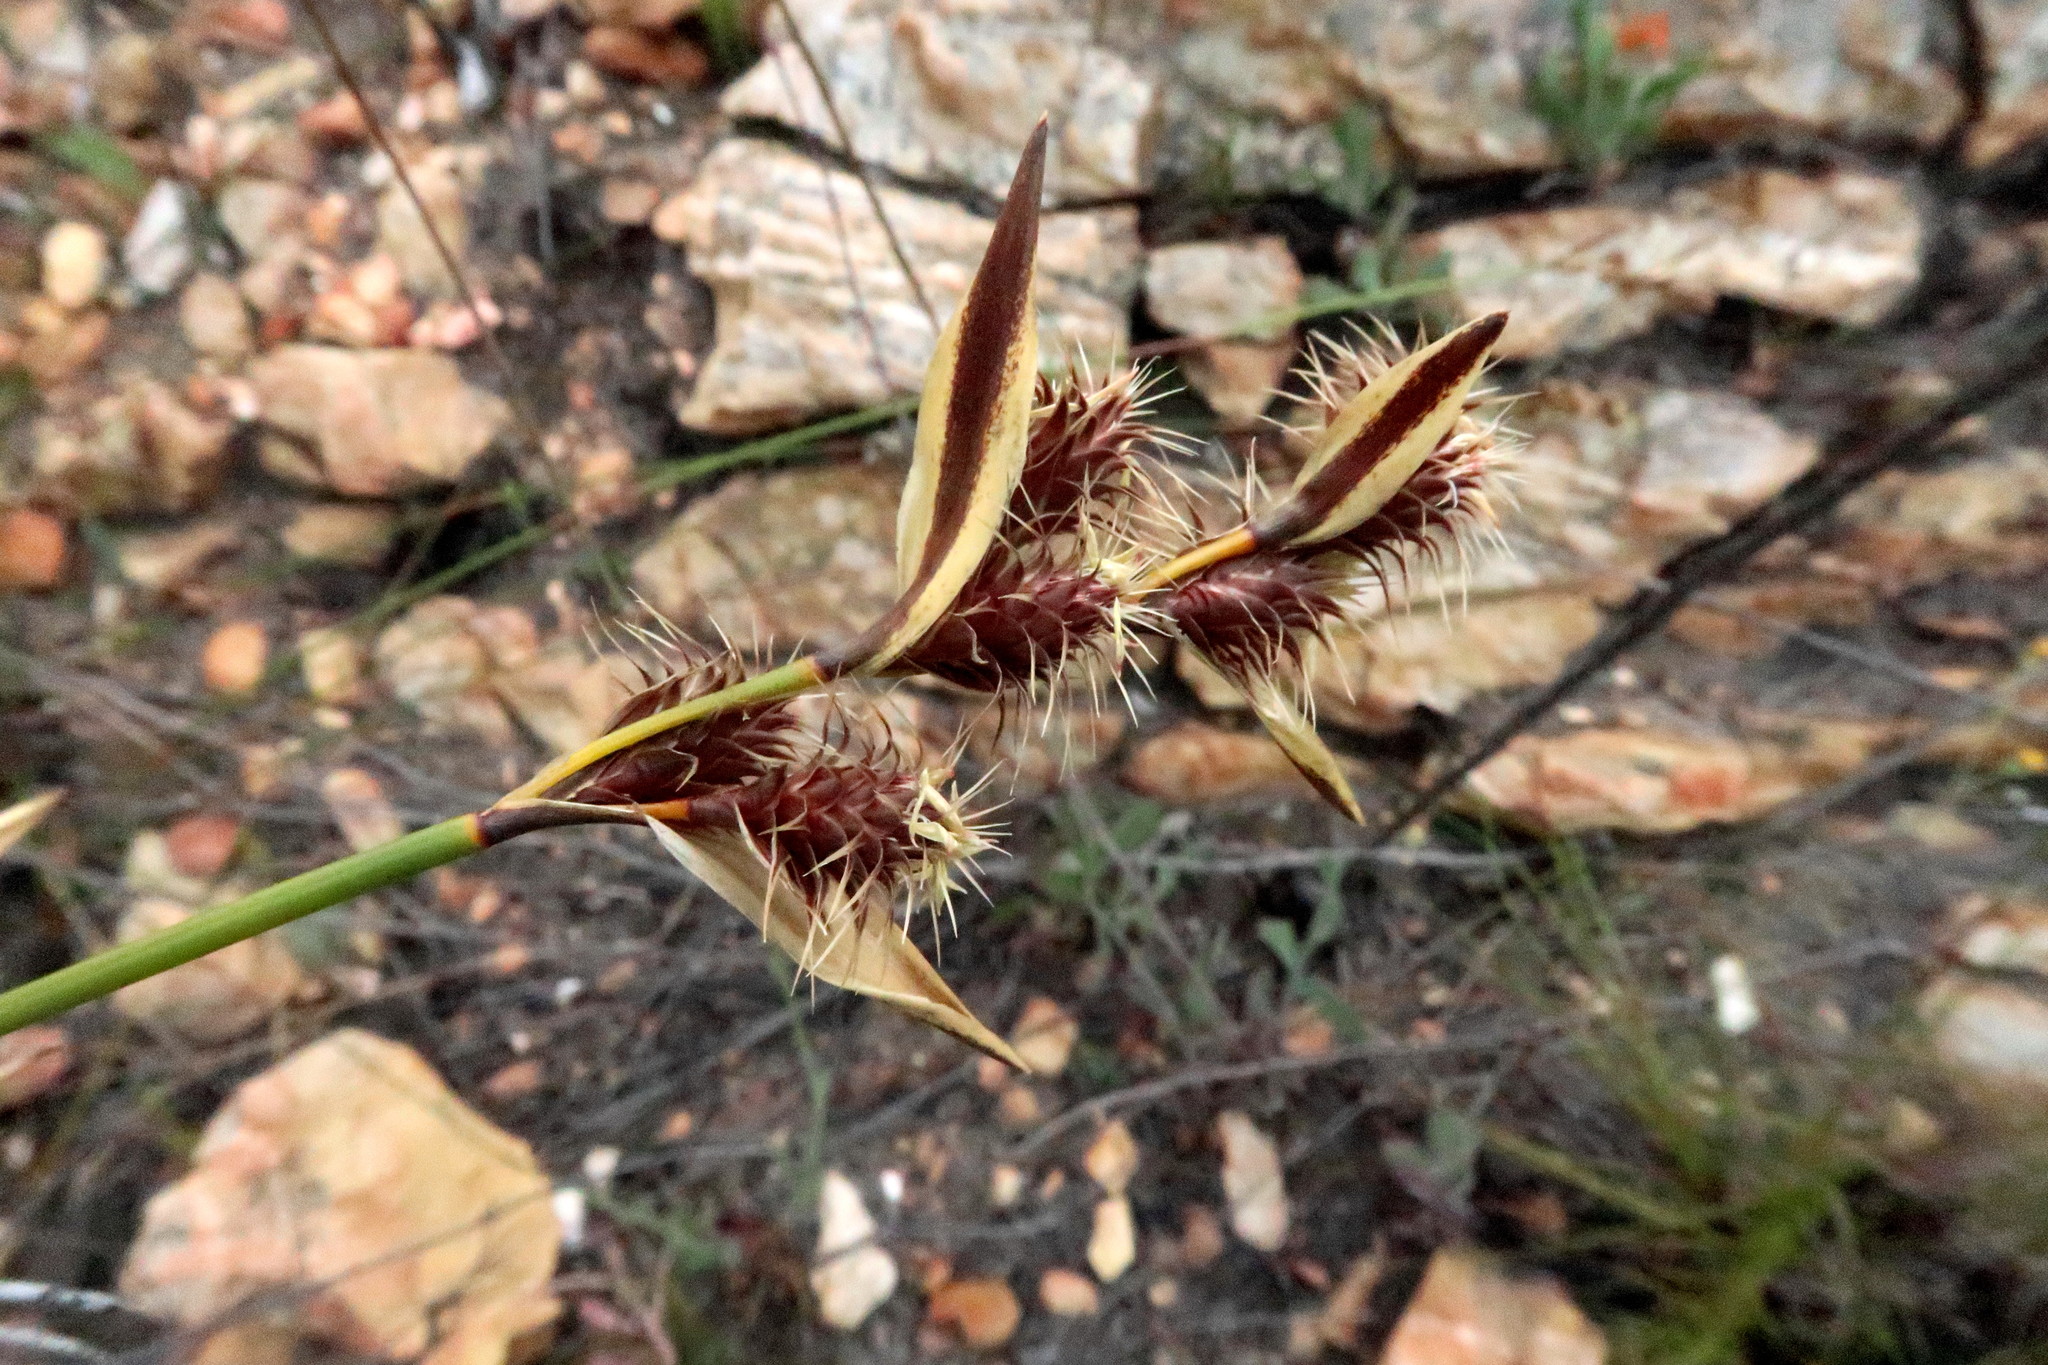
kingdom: Plantae
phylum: Tracheophyta
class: Liliopsida
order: Poales
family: Restionaceae
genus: Hypodiscus
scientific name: Hypodiscus aristatus
